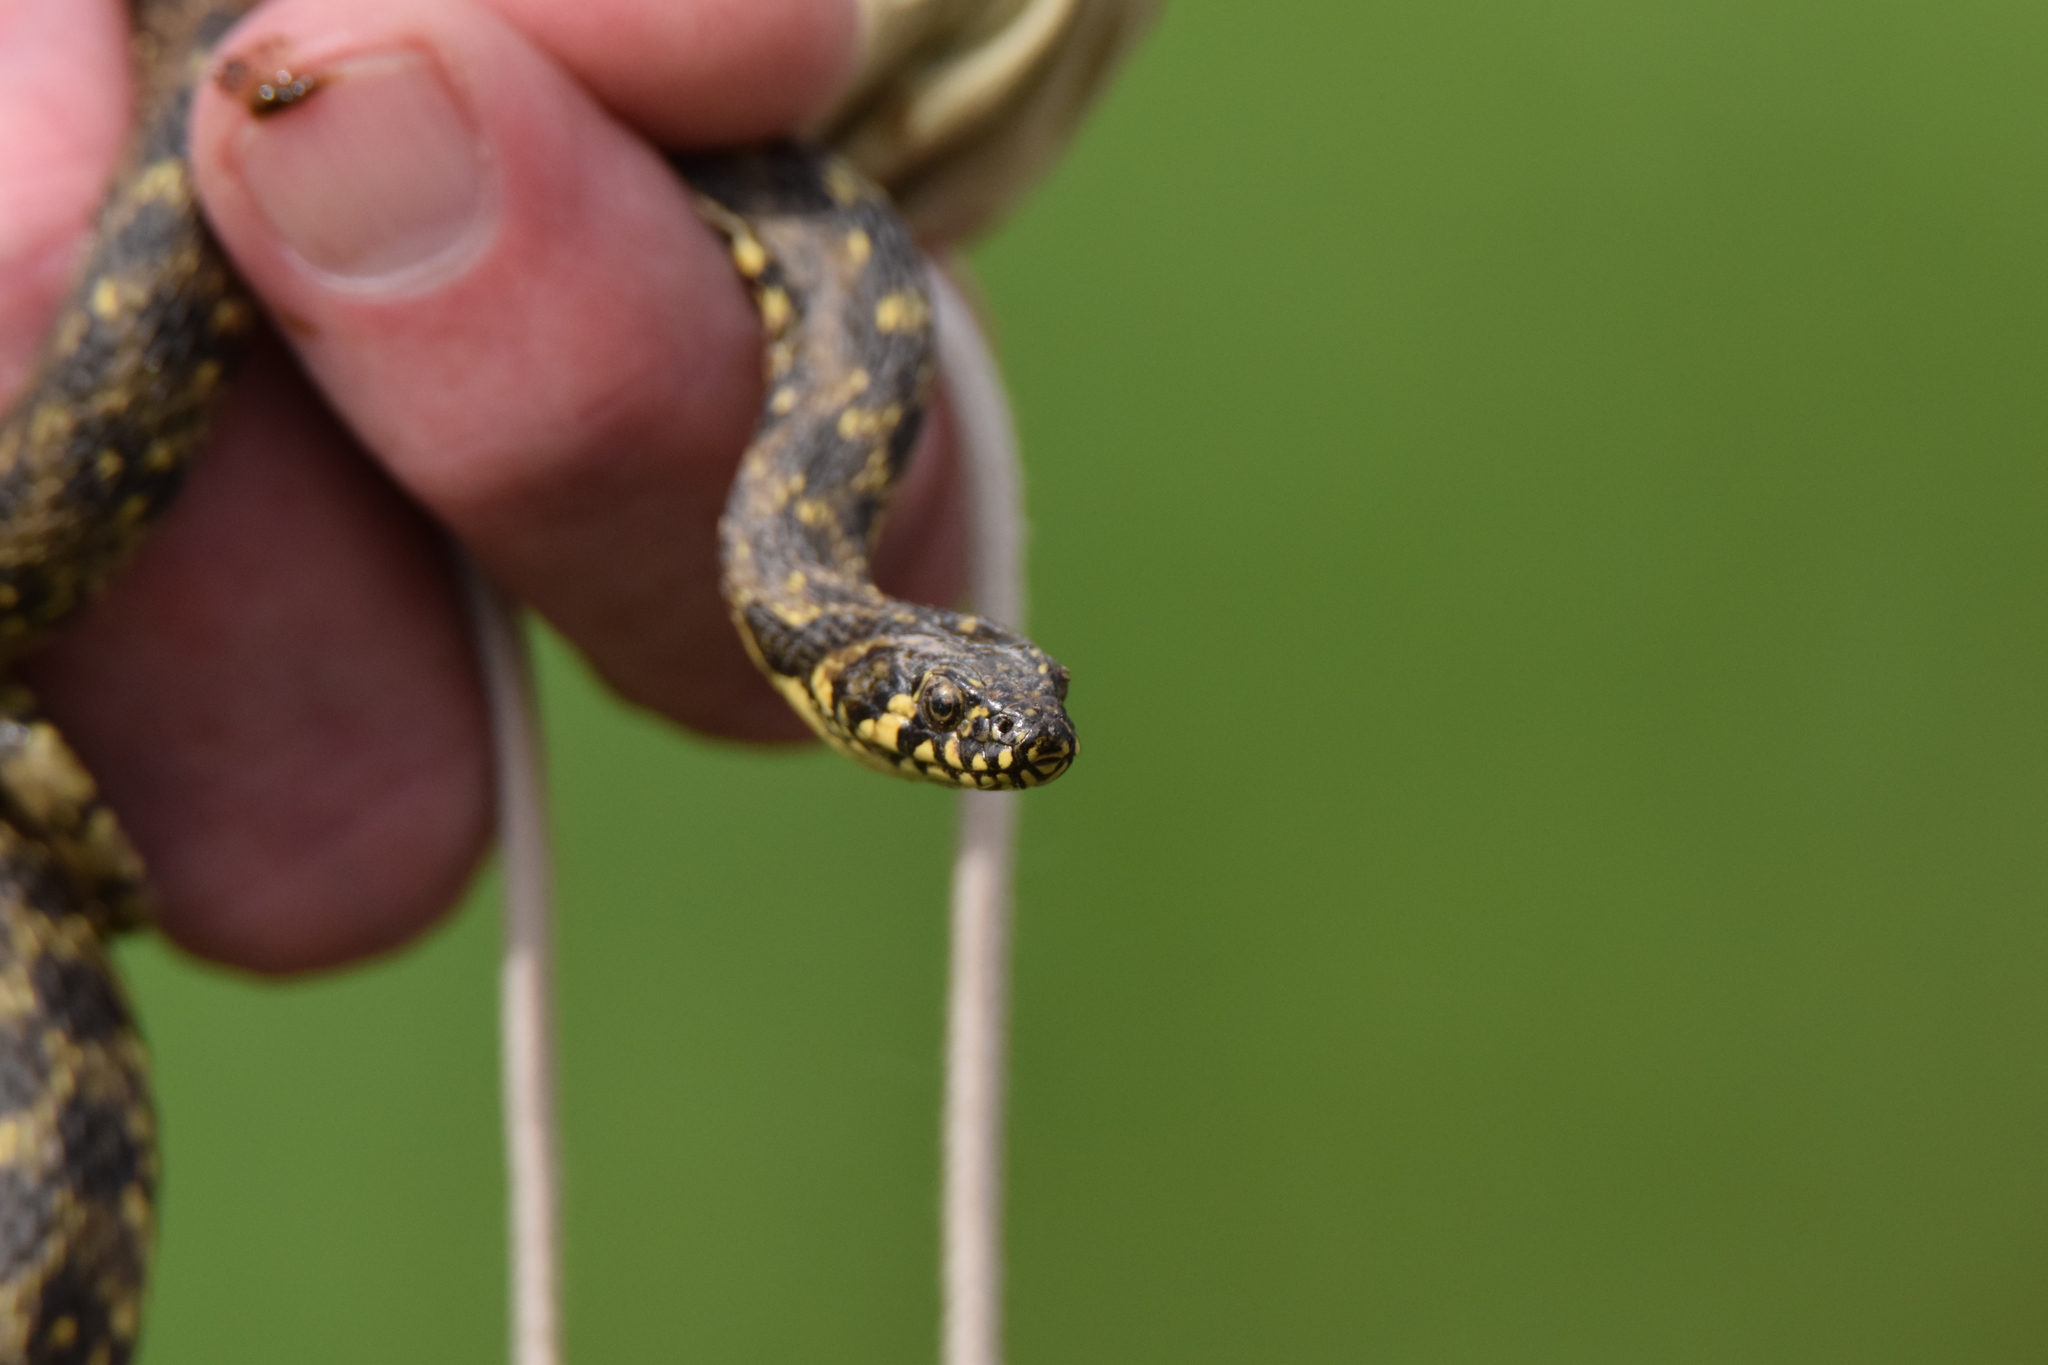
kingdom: Animalia
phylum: Chordata
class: Squamata
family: Colubridae
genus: Natrix
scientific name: Natrix maura
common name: Viperine water snake
